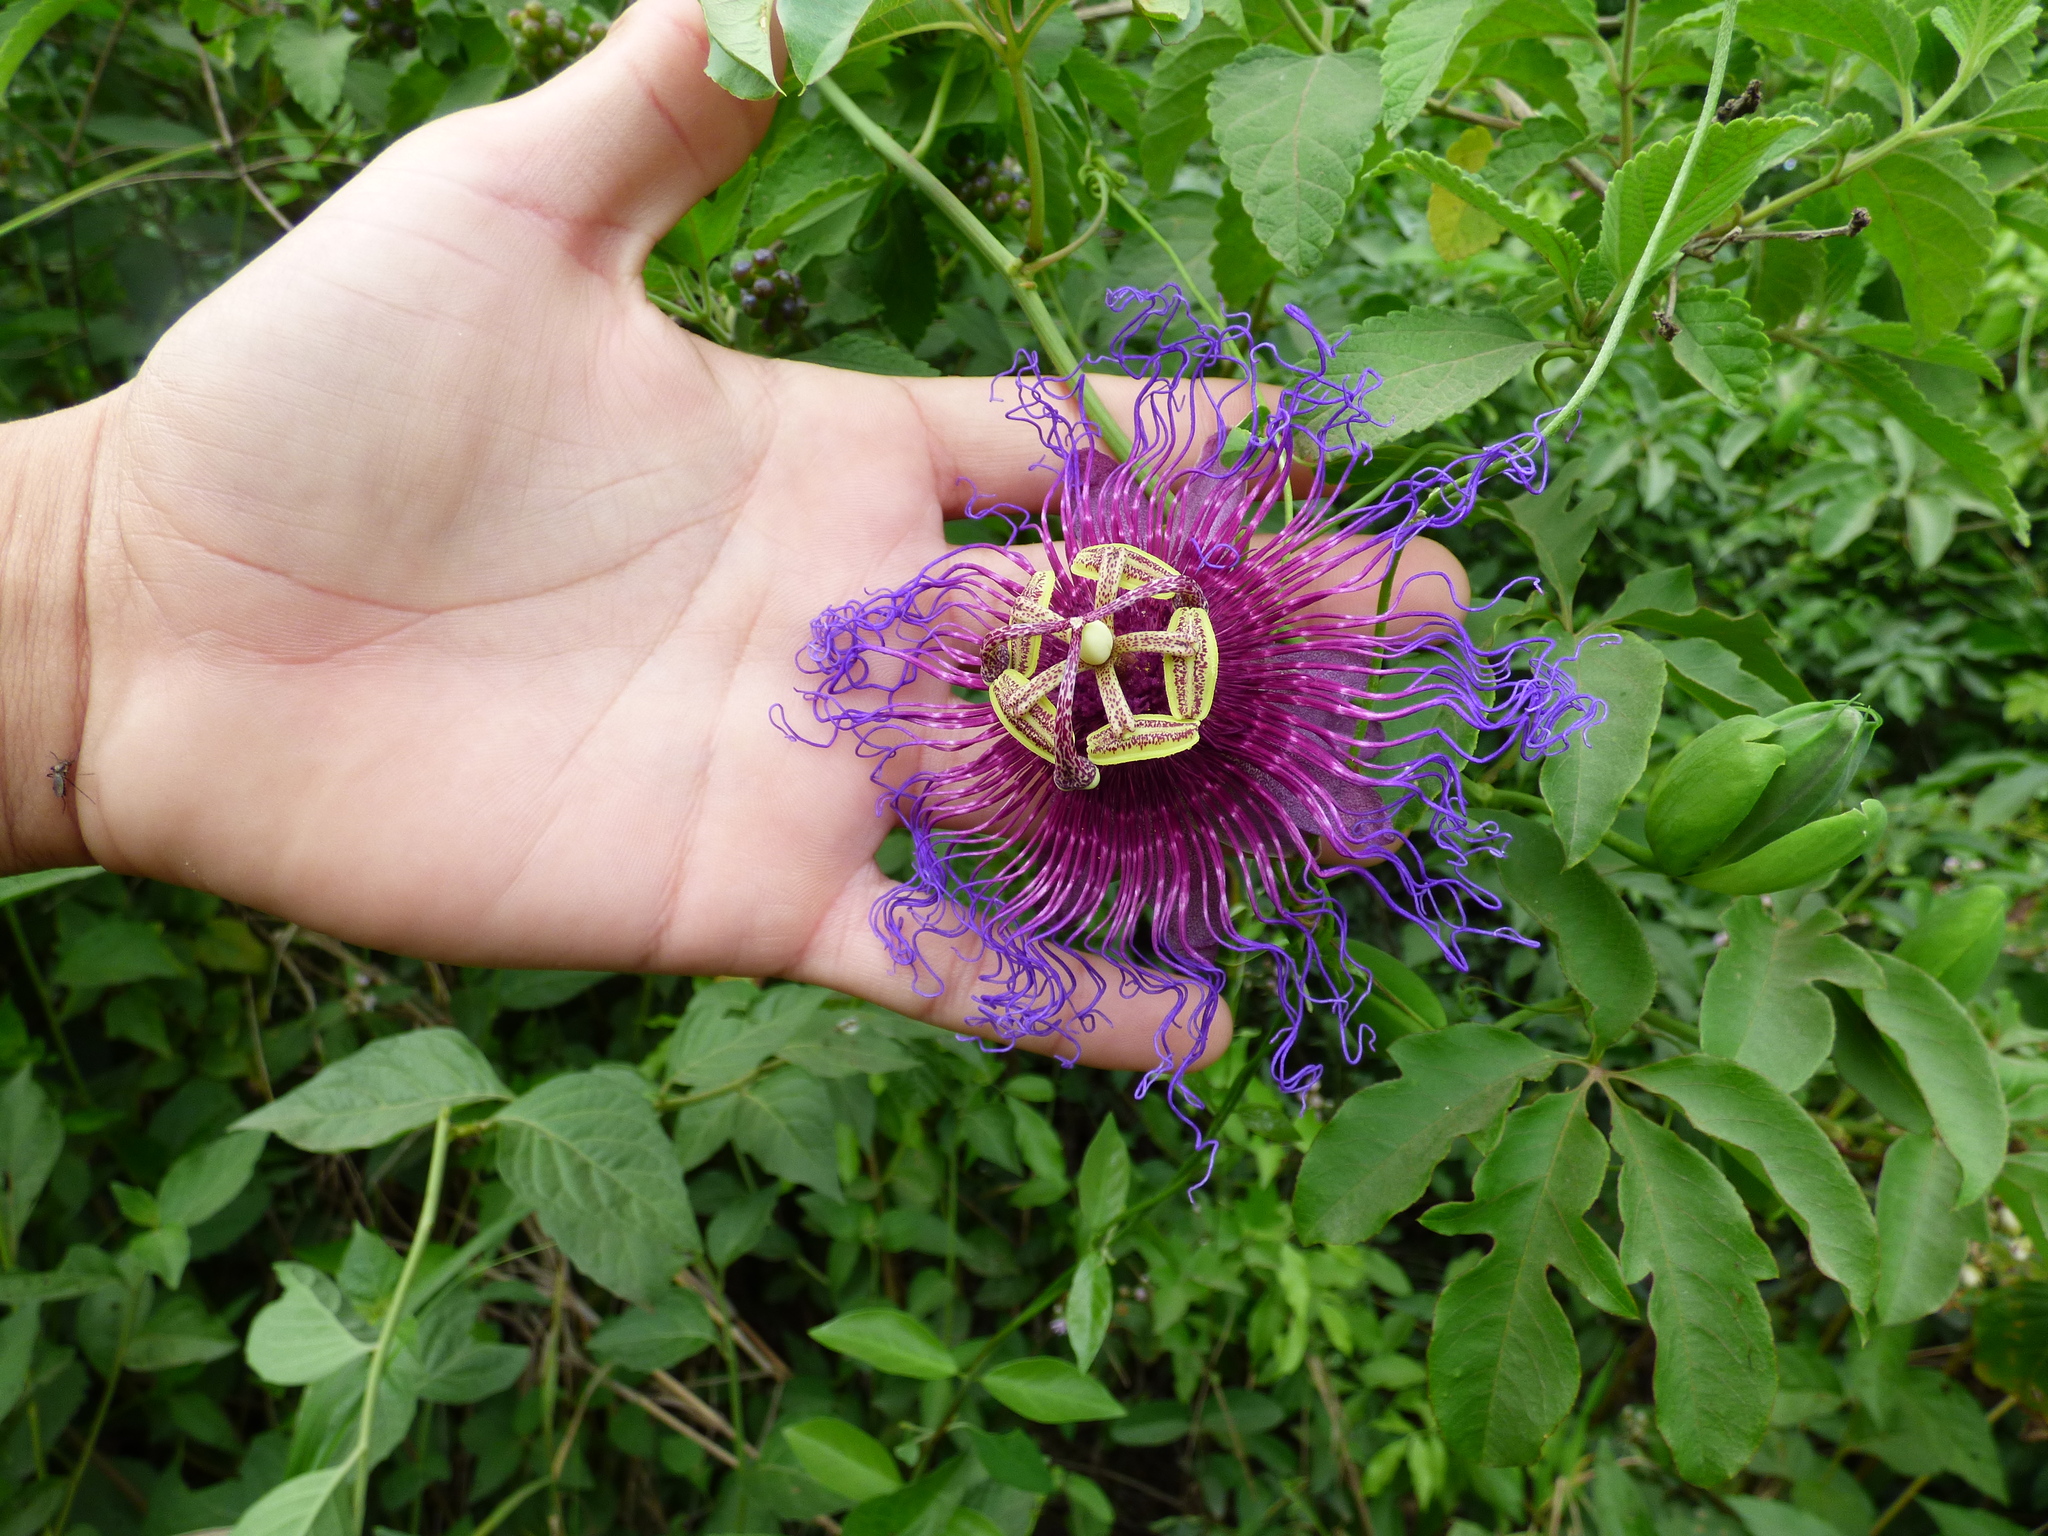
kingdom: Plantae
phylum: Tracheophyta
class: Magnoliopsida
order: Malpighiales
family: Passifloraceae
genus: Passiflora
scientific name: Passiflora cincinnata
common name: Crato passionvine
